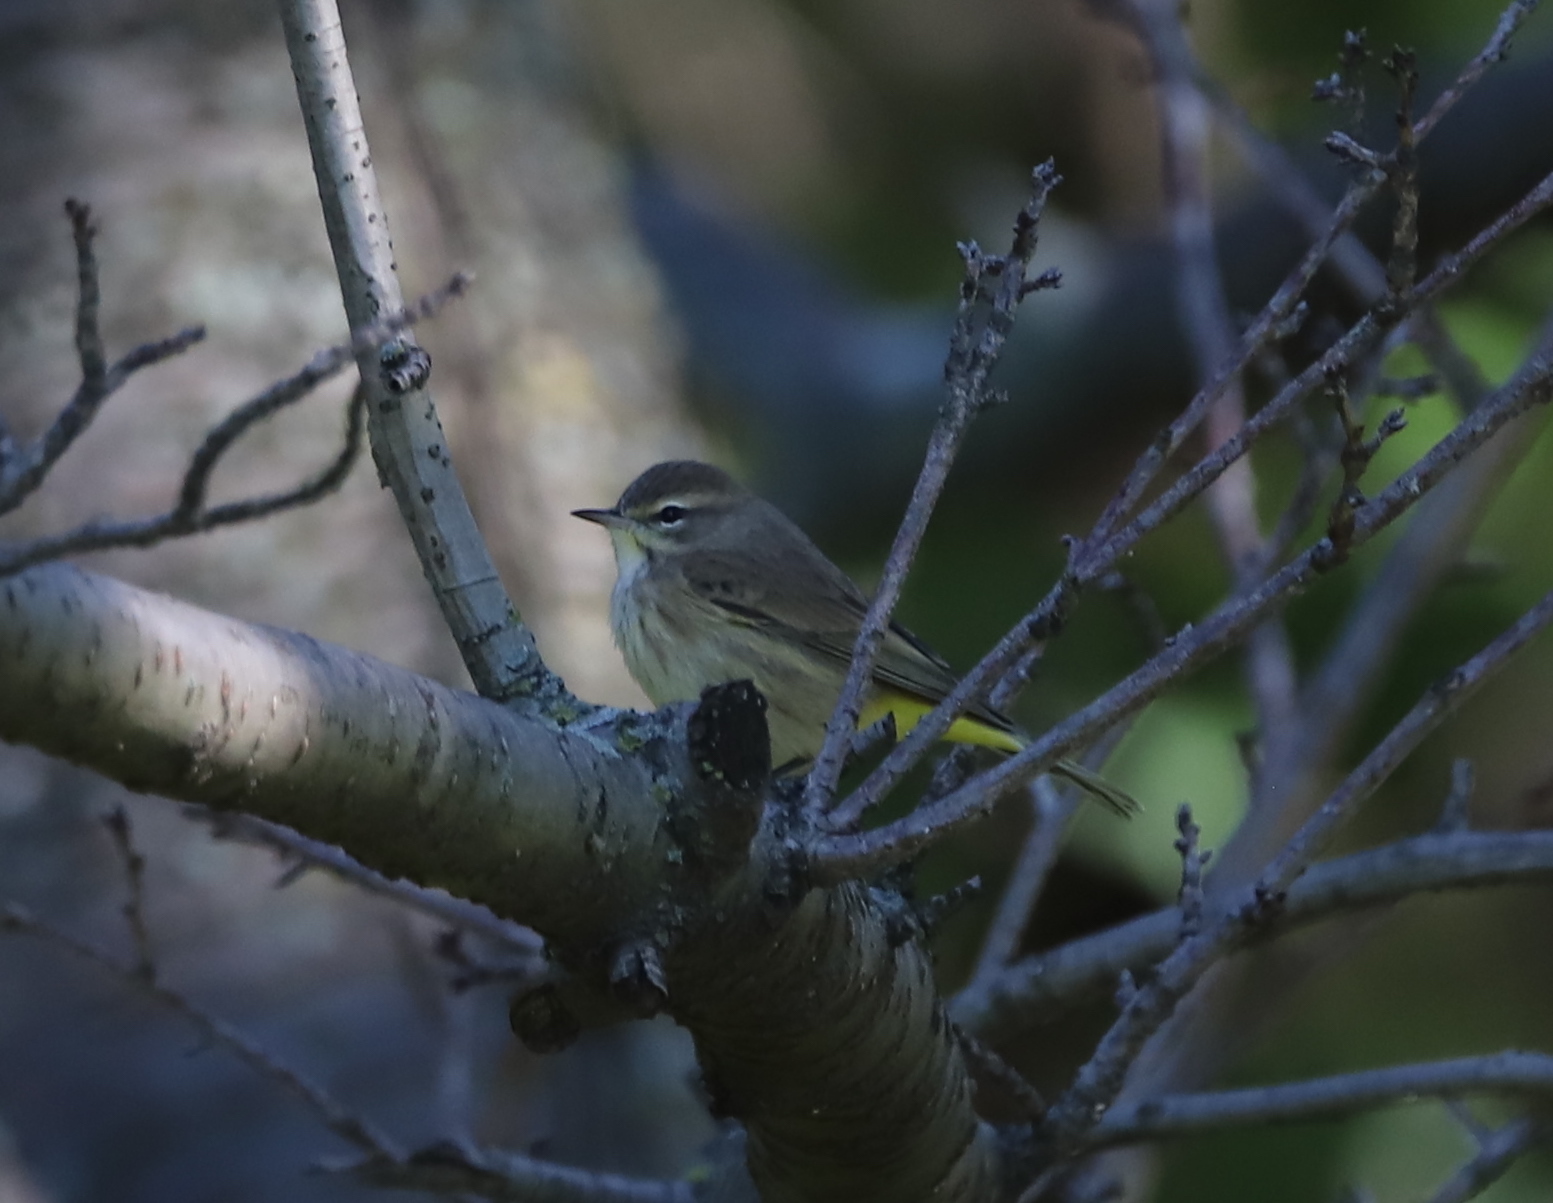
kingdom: Animalia
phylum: Chordata
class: Aves
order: Passeriformes
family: Parulidae
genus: Setophaga
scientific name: Setophaga palmarum
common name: Palm warbler
